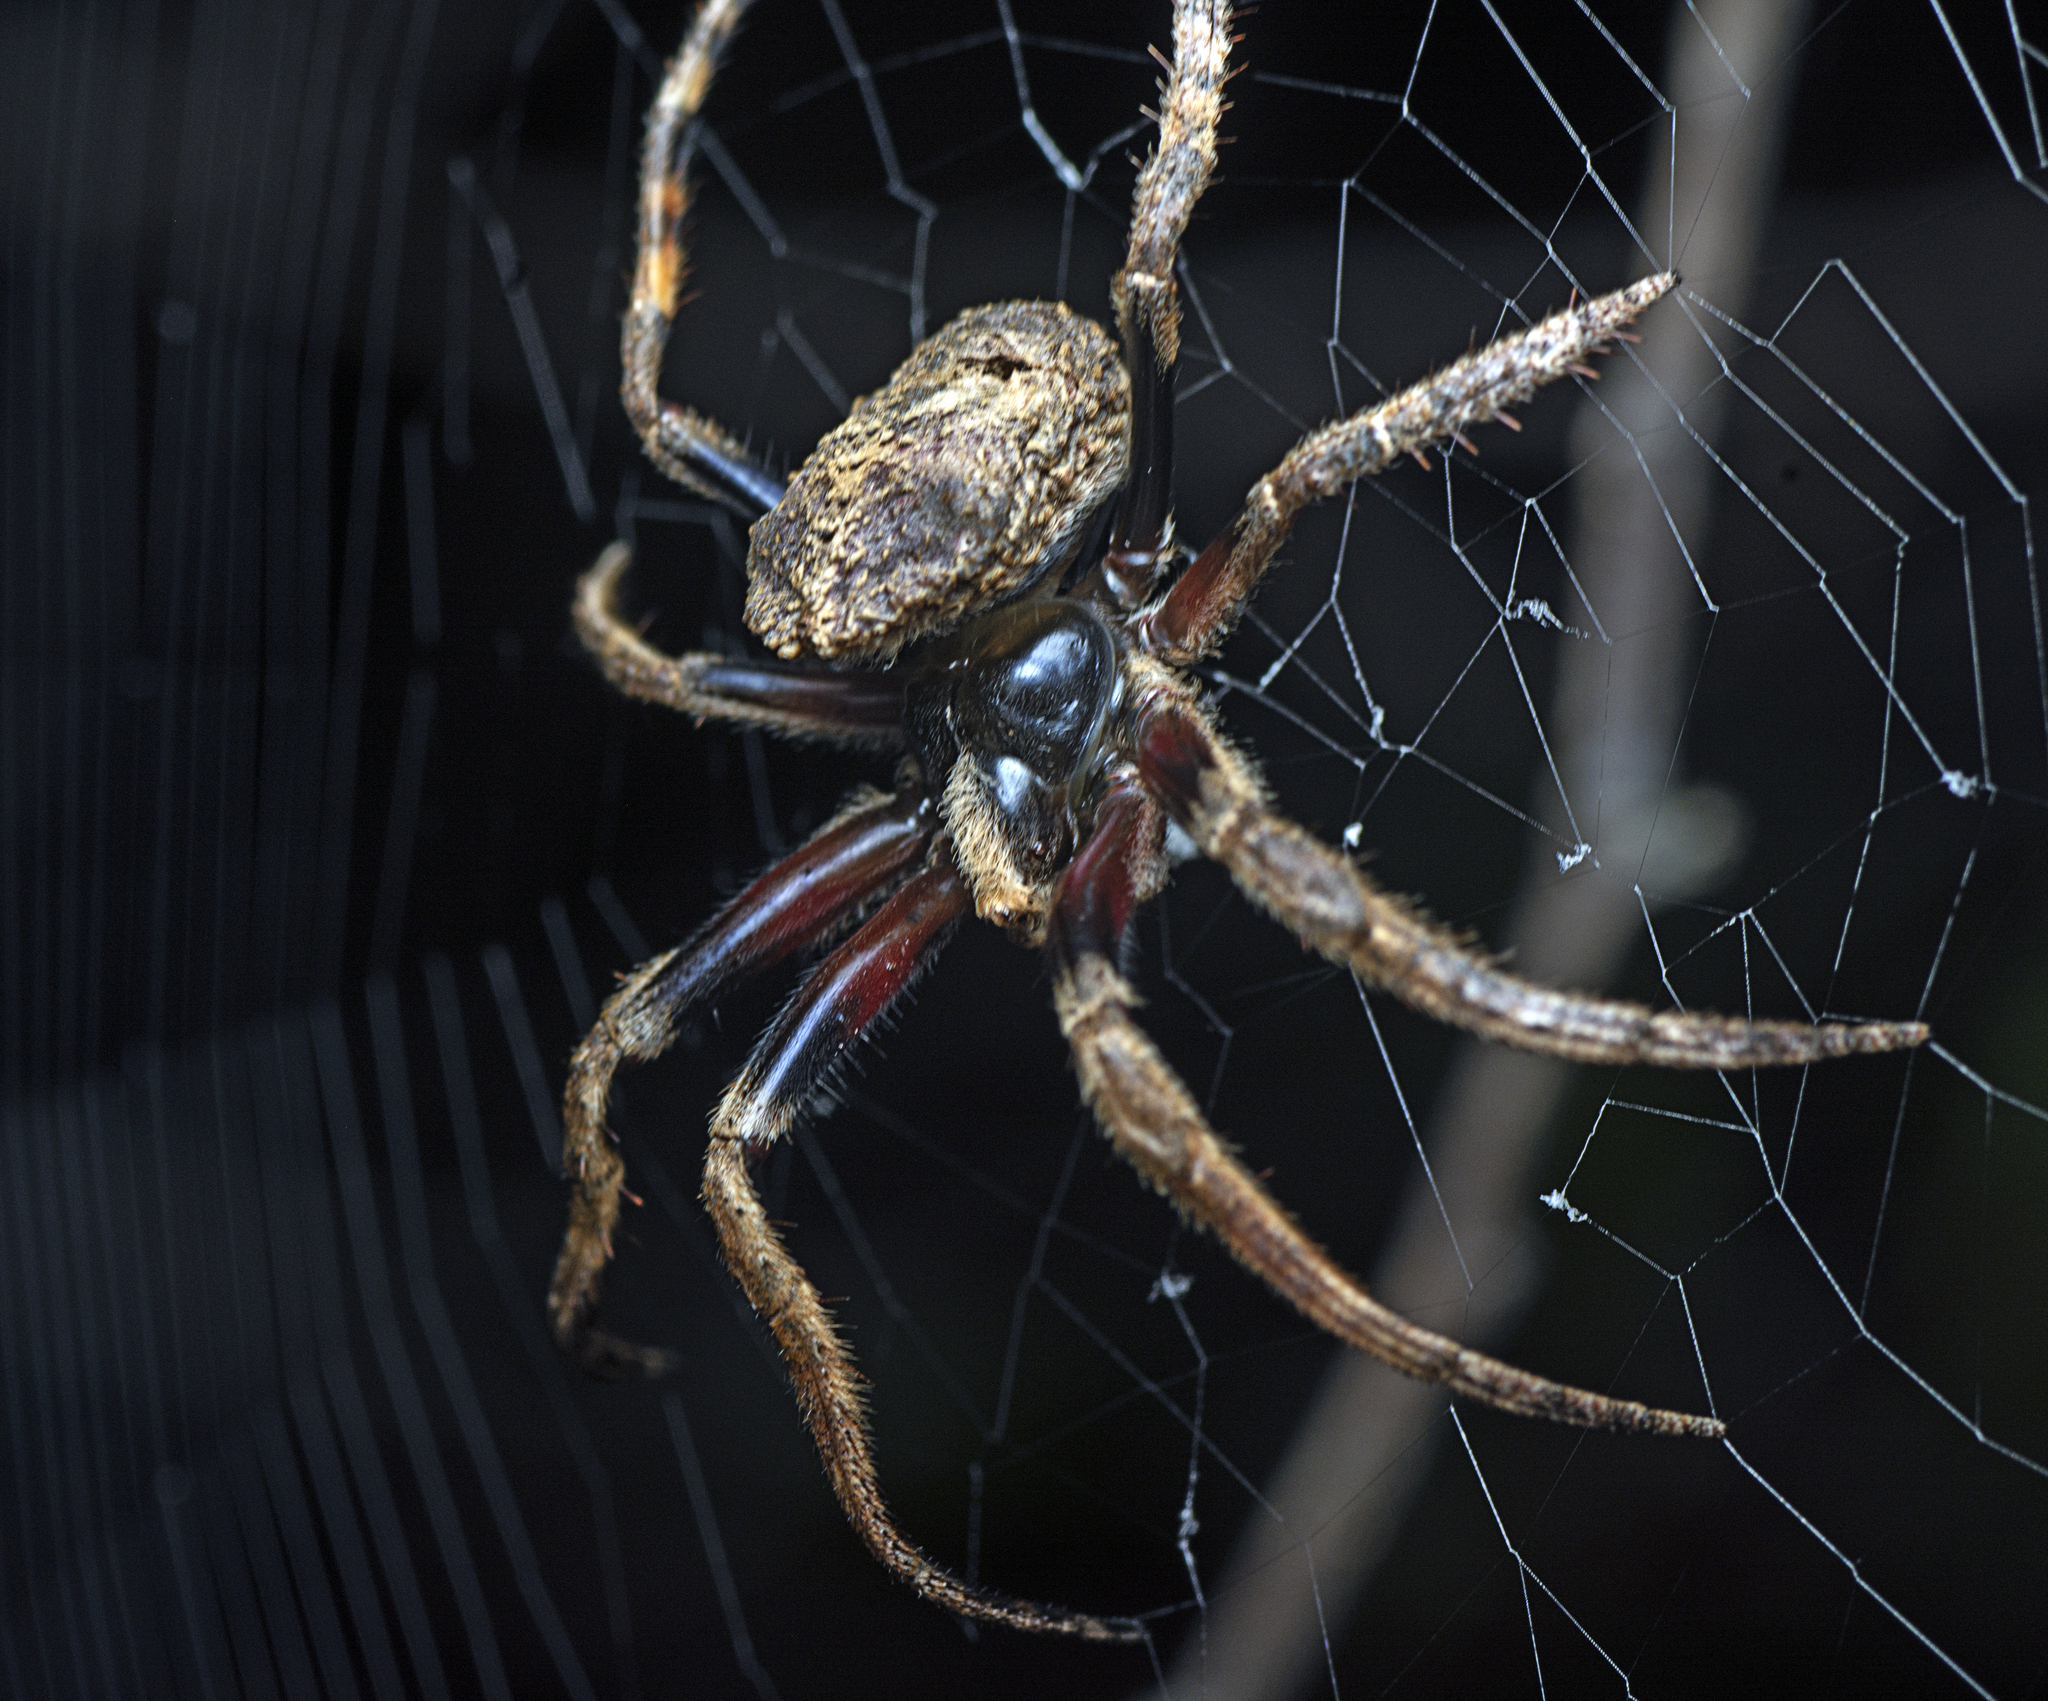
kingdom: Animalia
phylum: Arthropoda
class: Arachnida
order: Araneae
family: Araneidae
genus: Poltys
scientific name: Poltys illepidus
